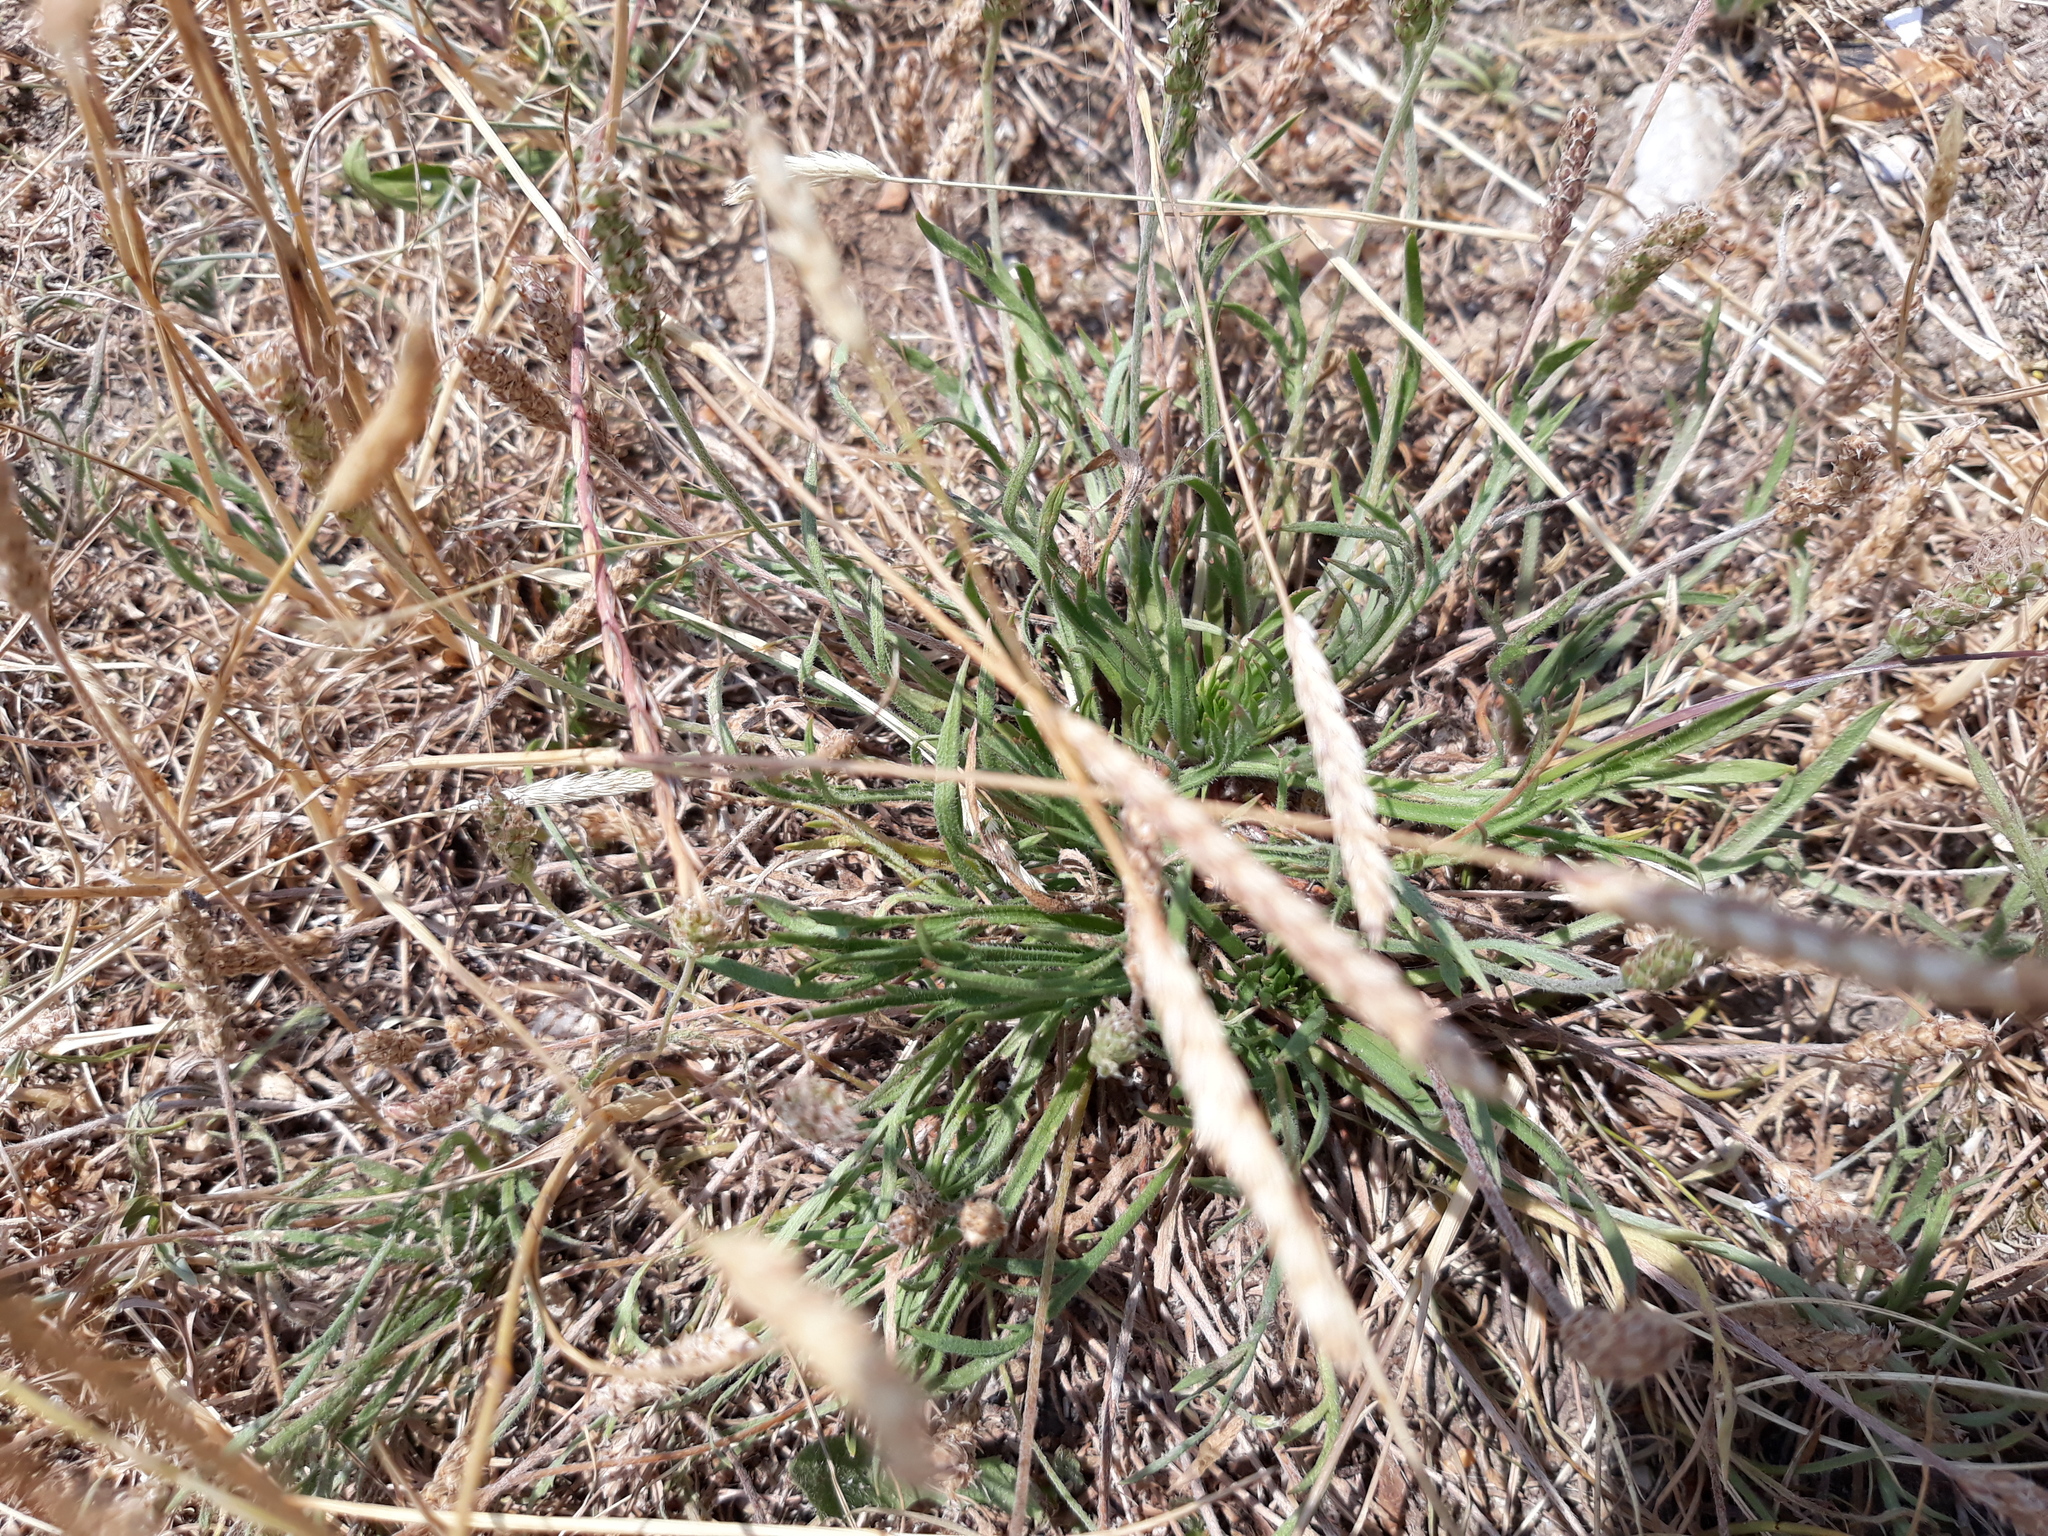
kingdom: Plantae
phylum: Tracheophyta
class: Magnoliopsida
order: Lamiales
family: Plantaginaceae
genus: Plantago
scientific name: Plantago coronopus
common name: Buck's-horn plantain
